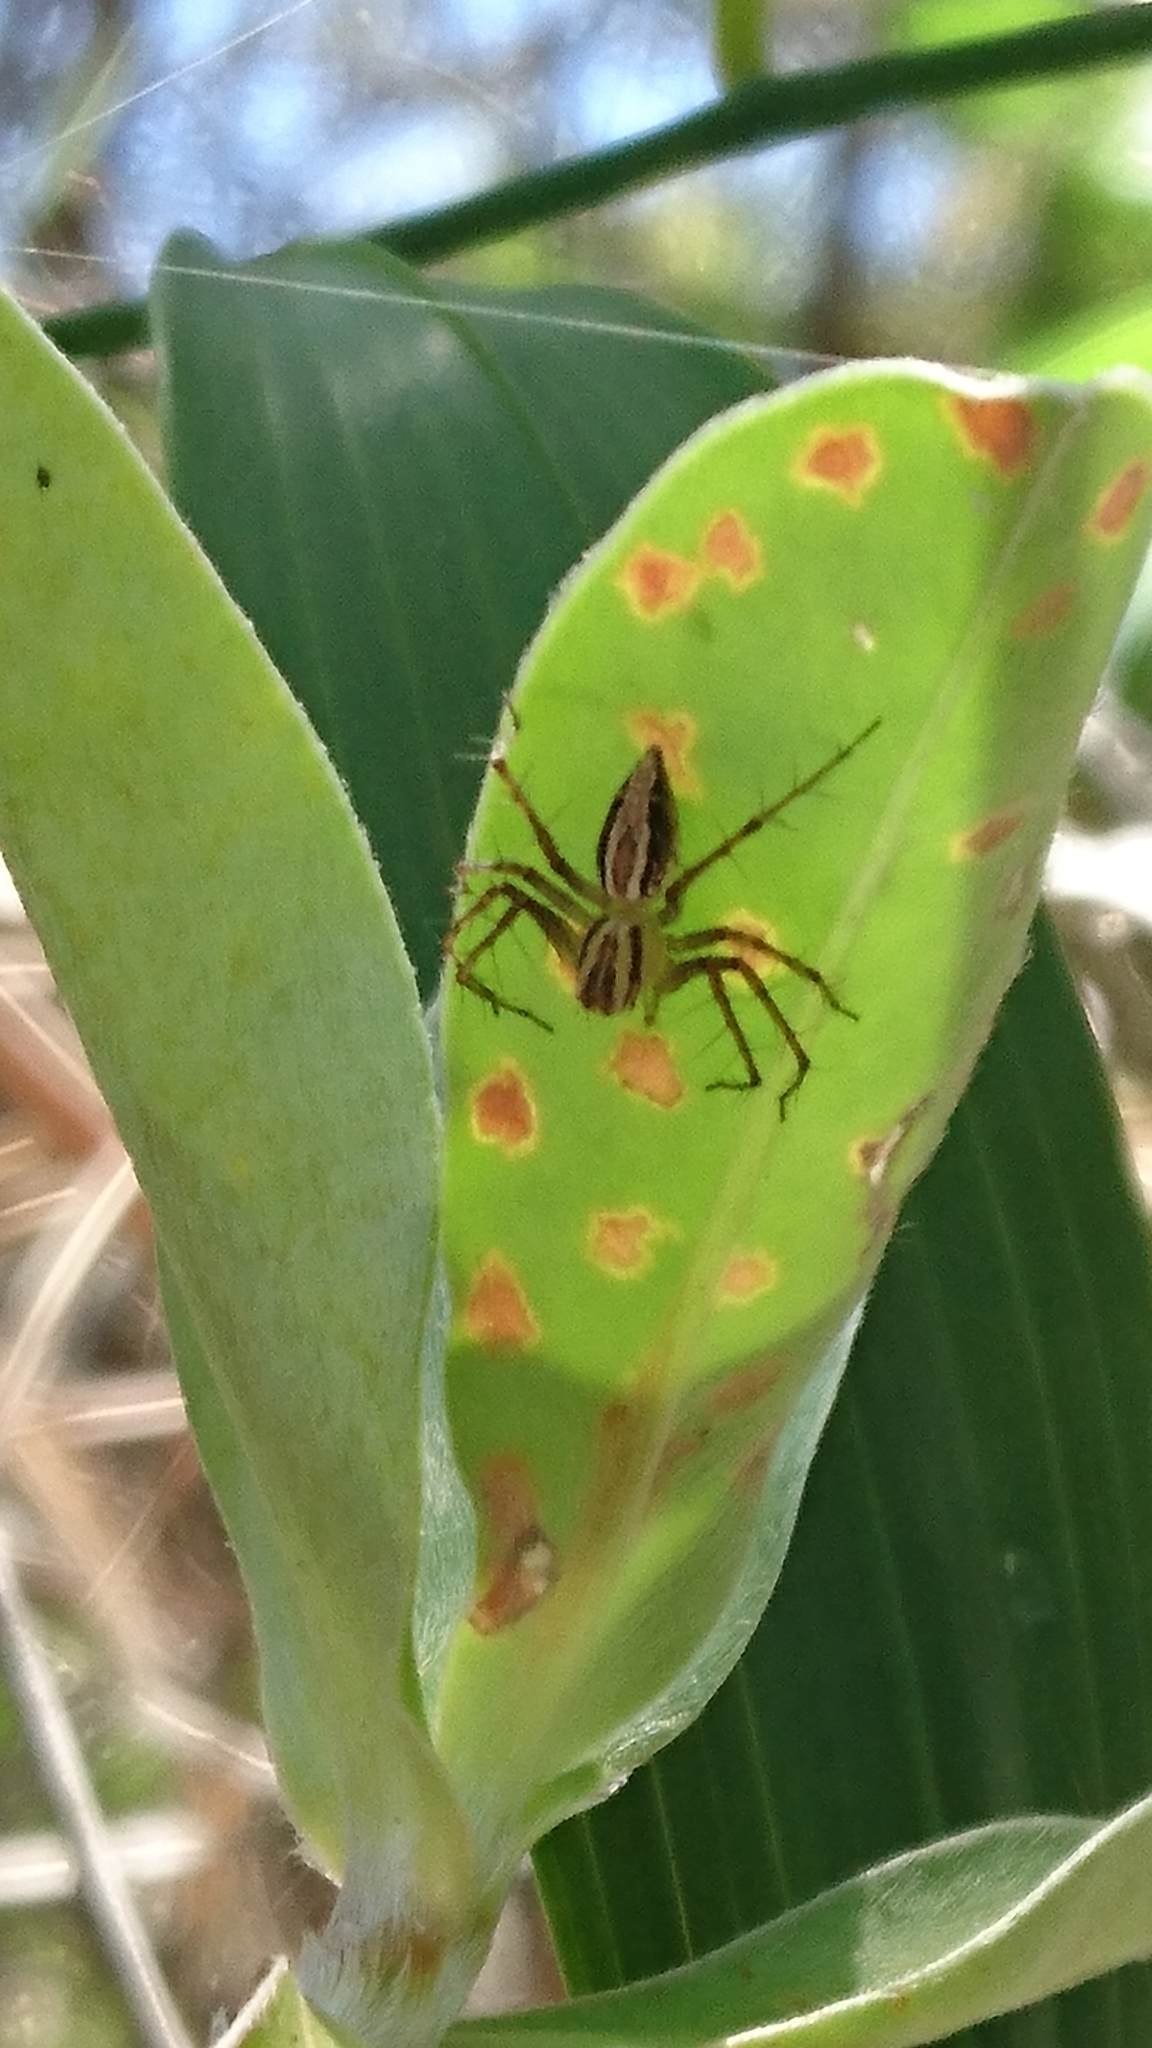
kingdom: Animalia
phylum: Arthropoda
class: Arachnida
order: Araneae
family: Oxyopidae
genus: Oxyopes
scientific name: Oxyopes
